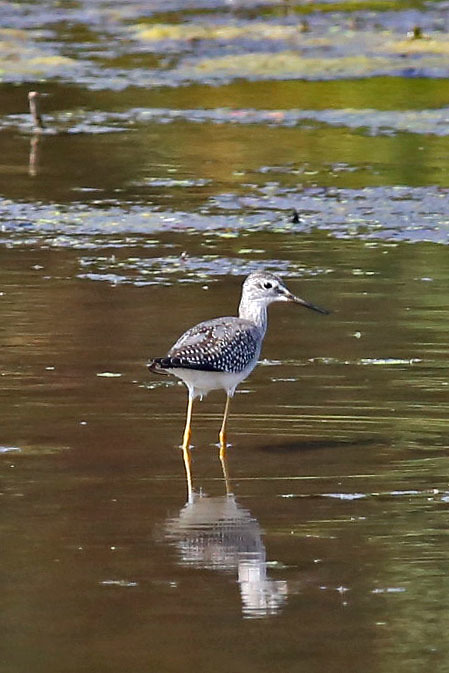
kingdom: Animalia
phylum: Chordata
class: Aves
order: Charadriiformes
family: Scolopacidae
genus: Tringa
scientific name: Tringa flavipes
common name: Lesser yellowlegs
